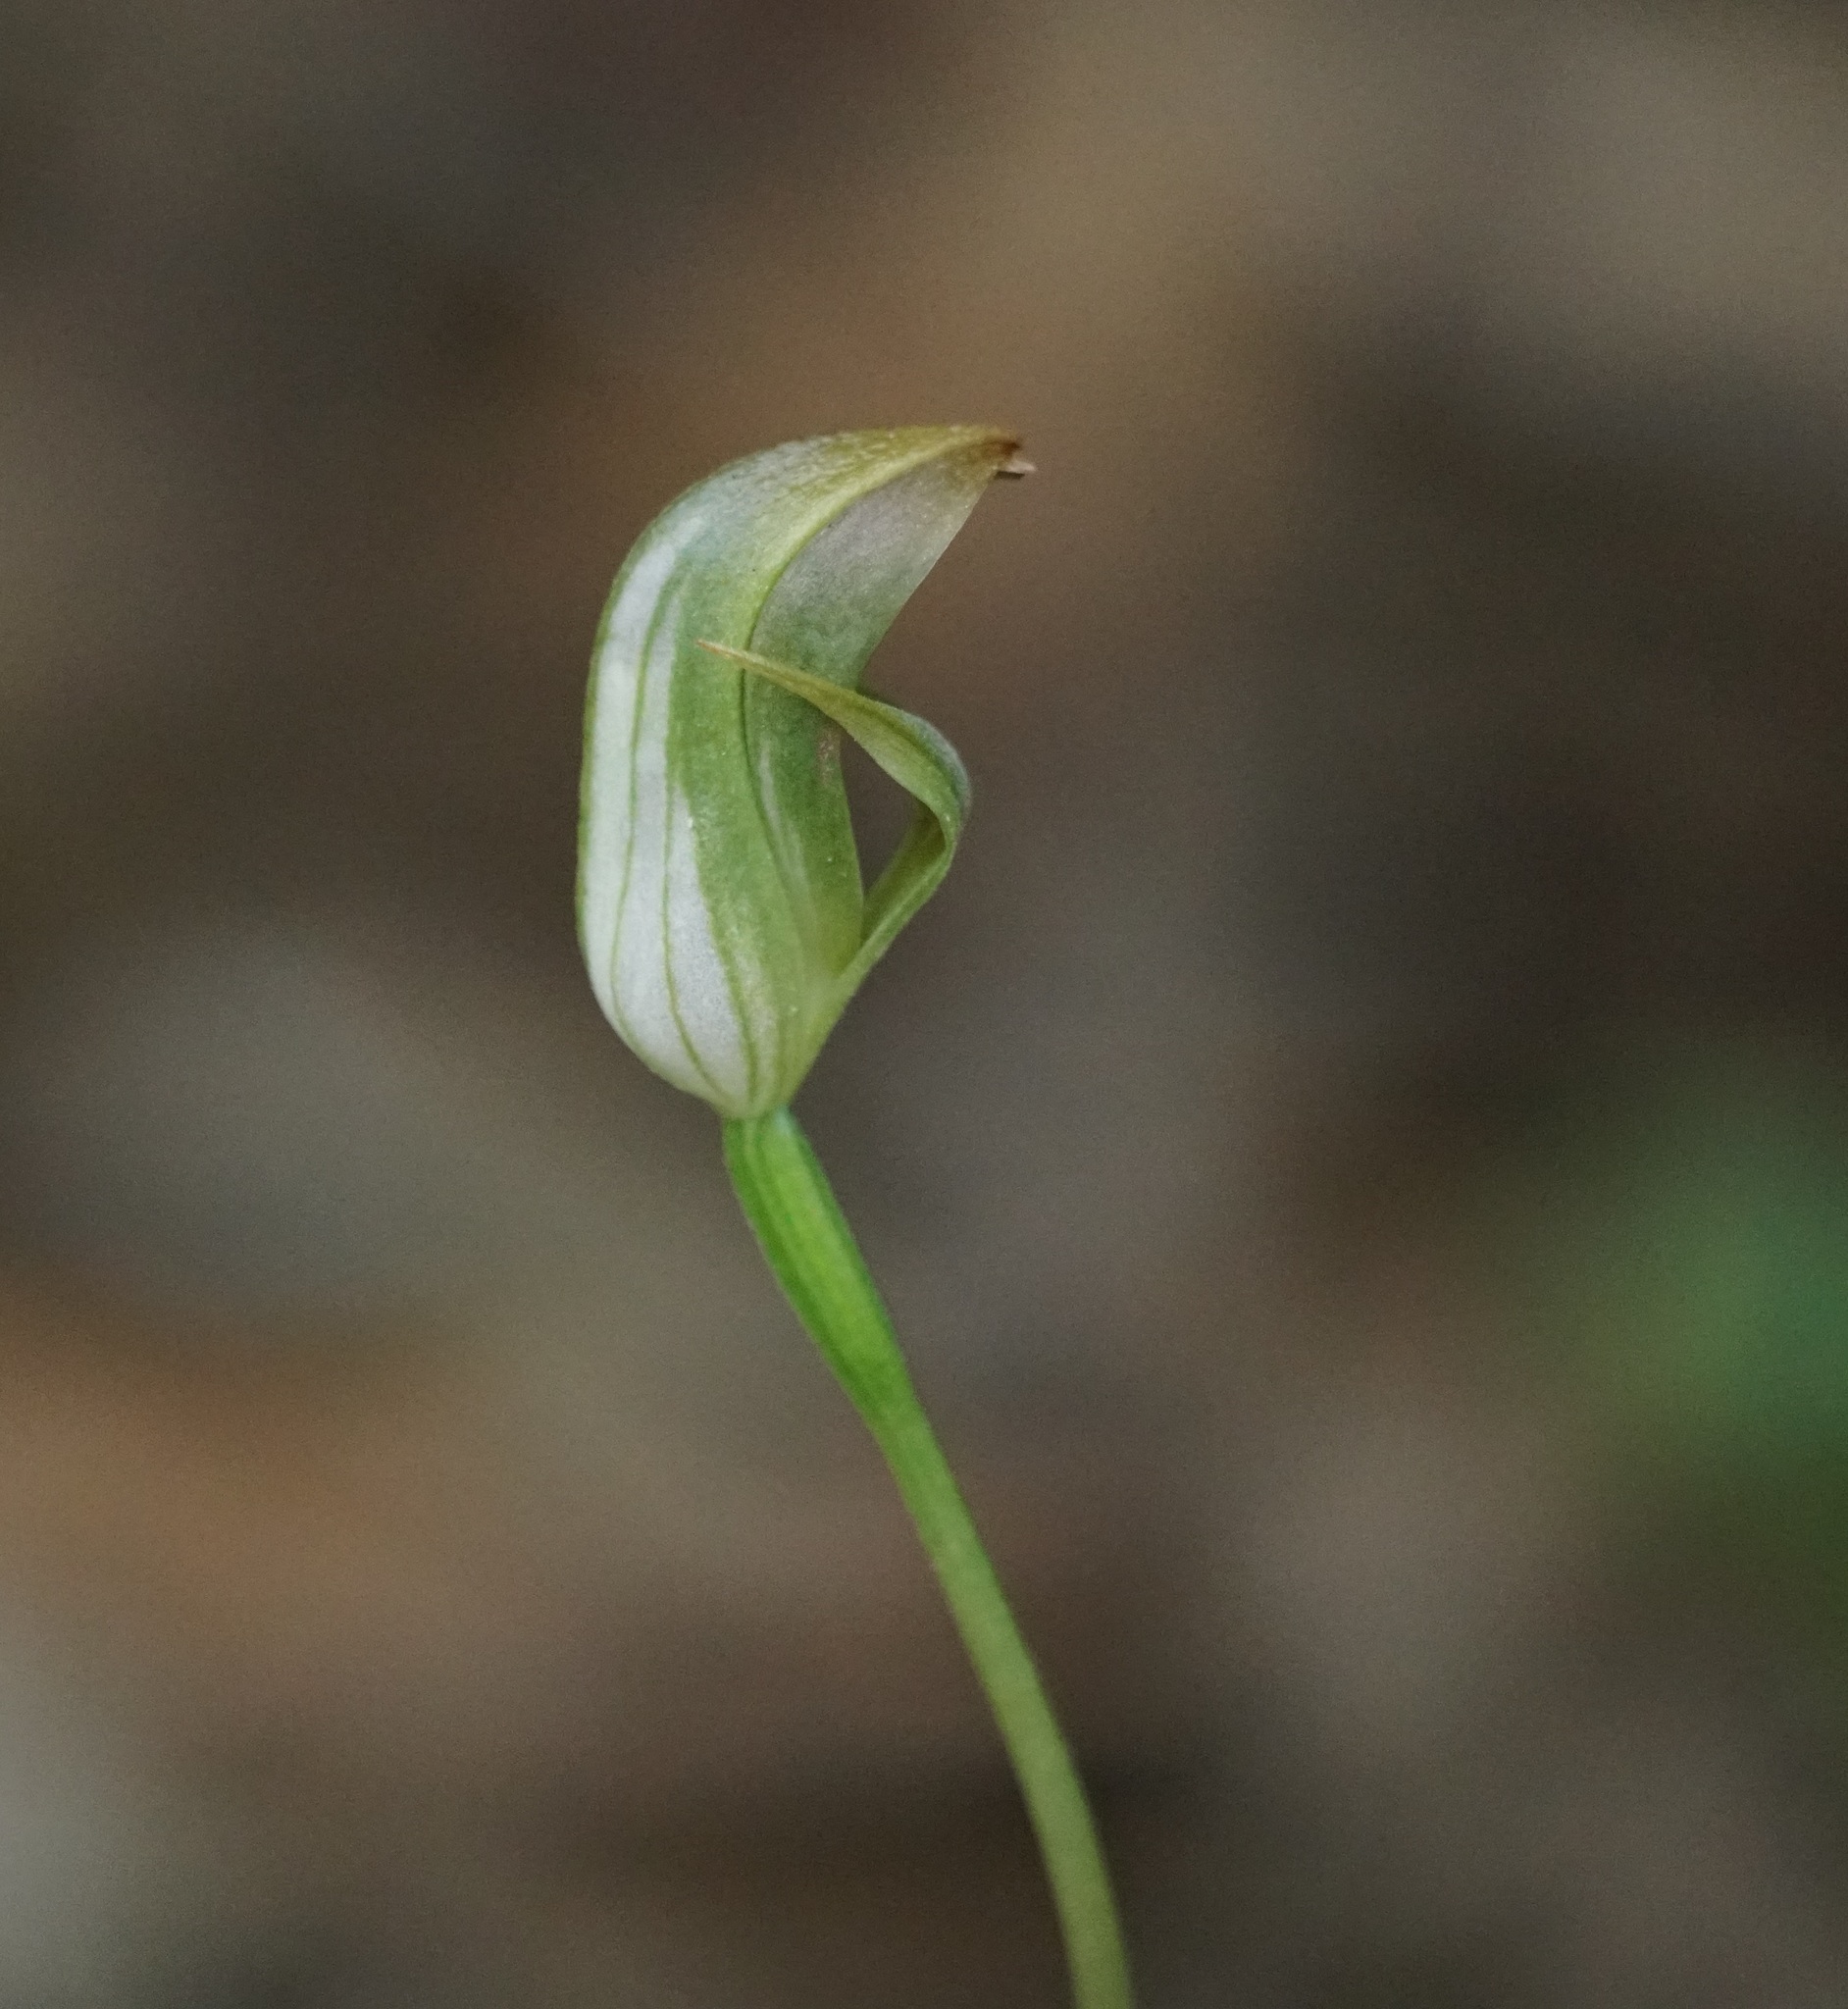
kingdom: Plantae
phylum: Tracheophyta
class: Liliopsida
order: Asparagales
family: Orchidaceae
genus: Pterostylis
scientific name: Pterostylis curta
